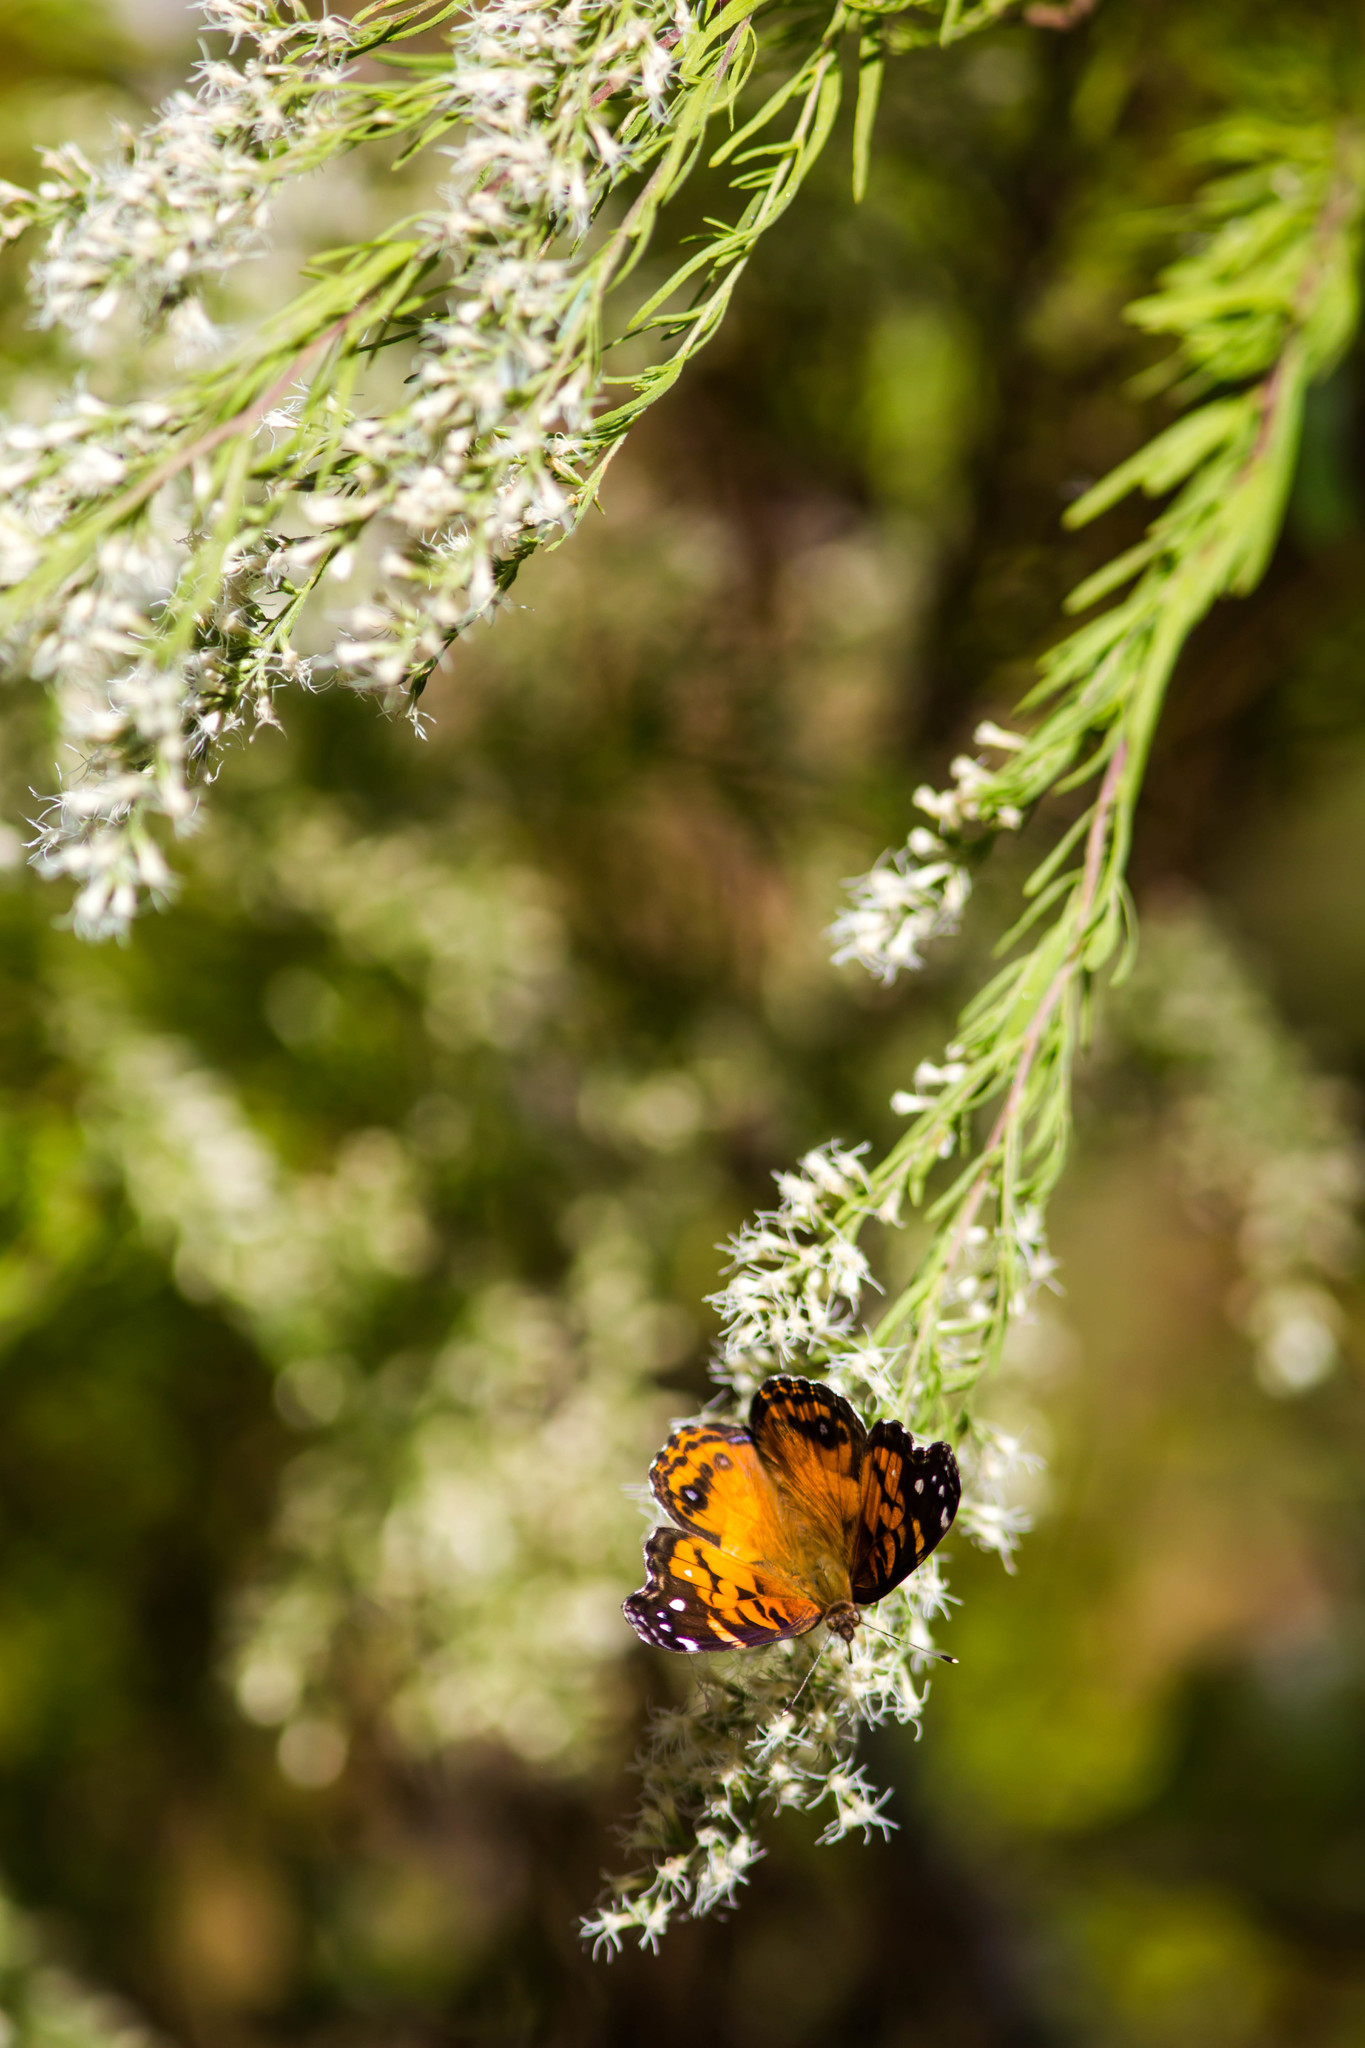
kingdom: Animalia
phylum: Arthropoda
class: Insecta
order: Lepidoptera
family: Nymphalidae
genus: Vanessa
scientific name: Vanessa virginiensis
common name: American lady
